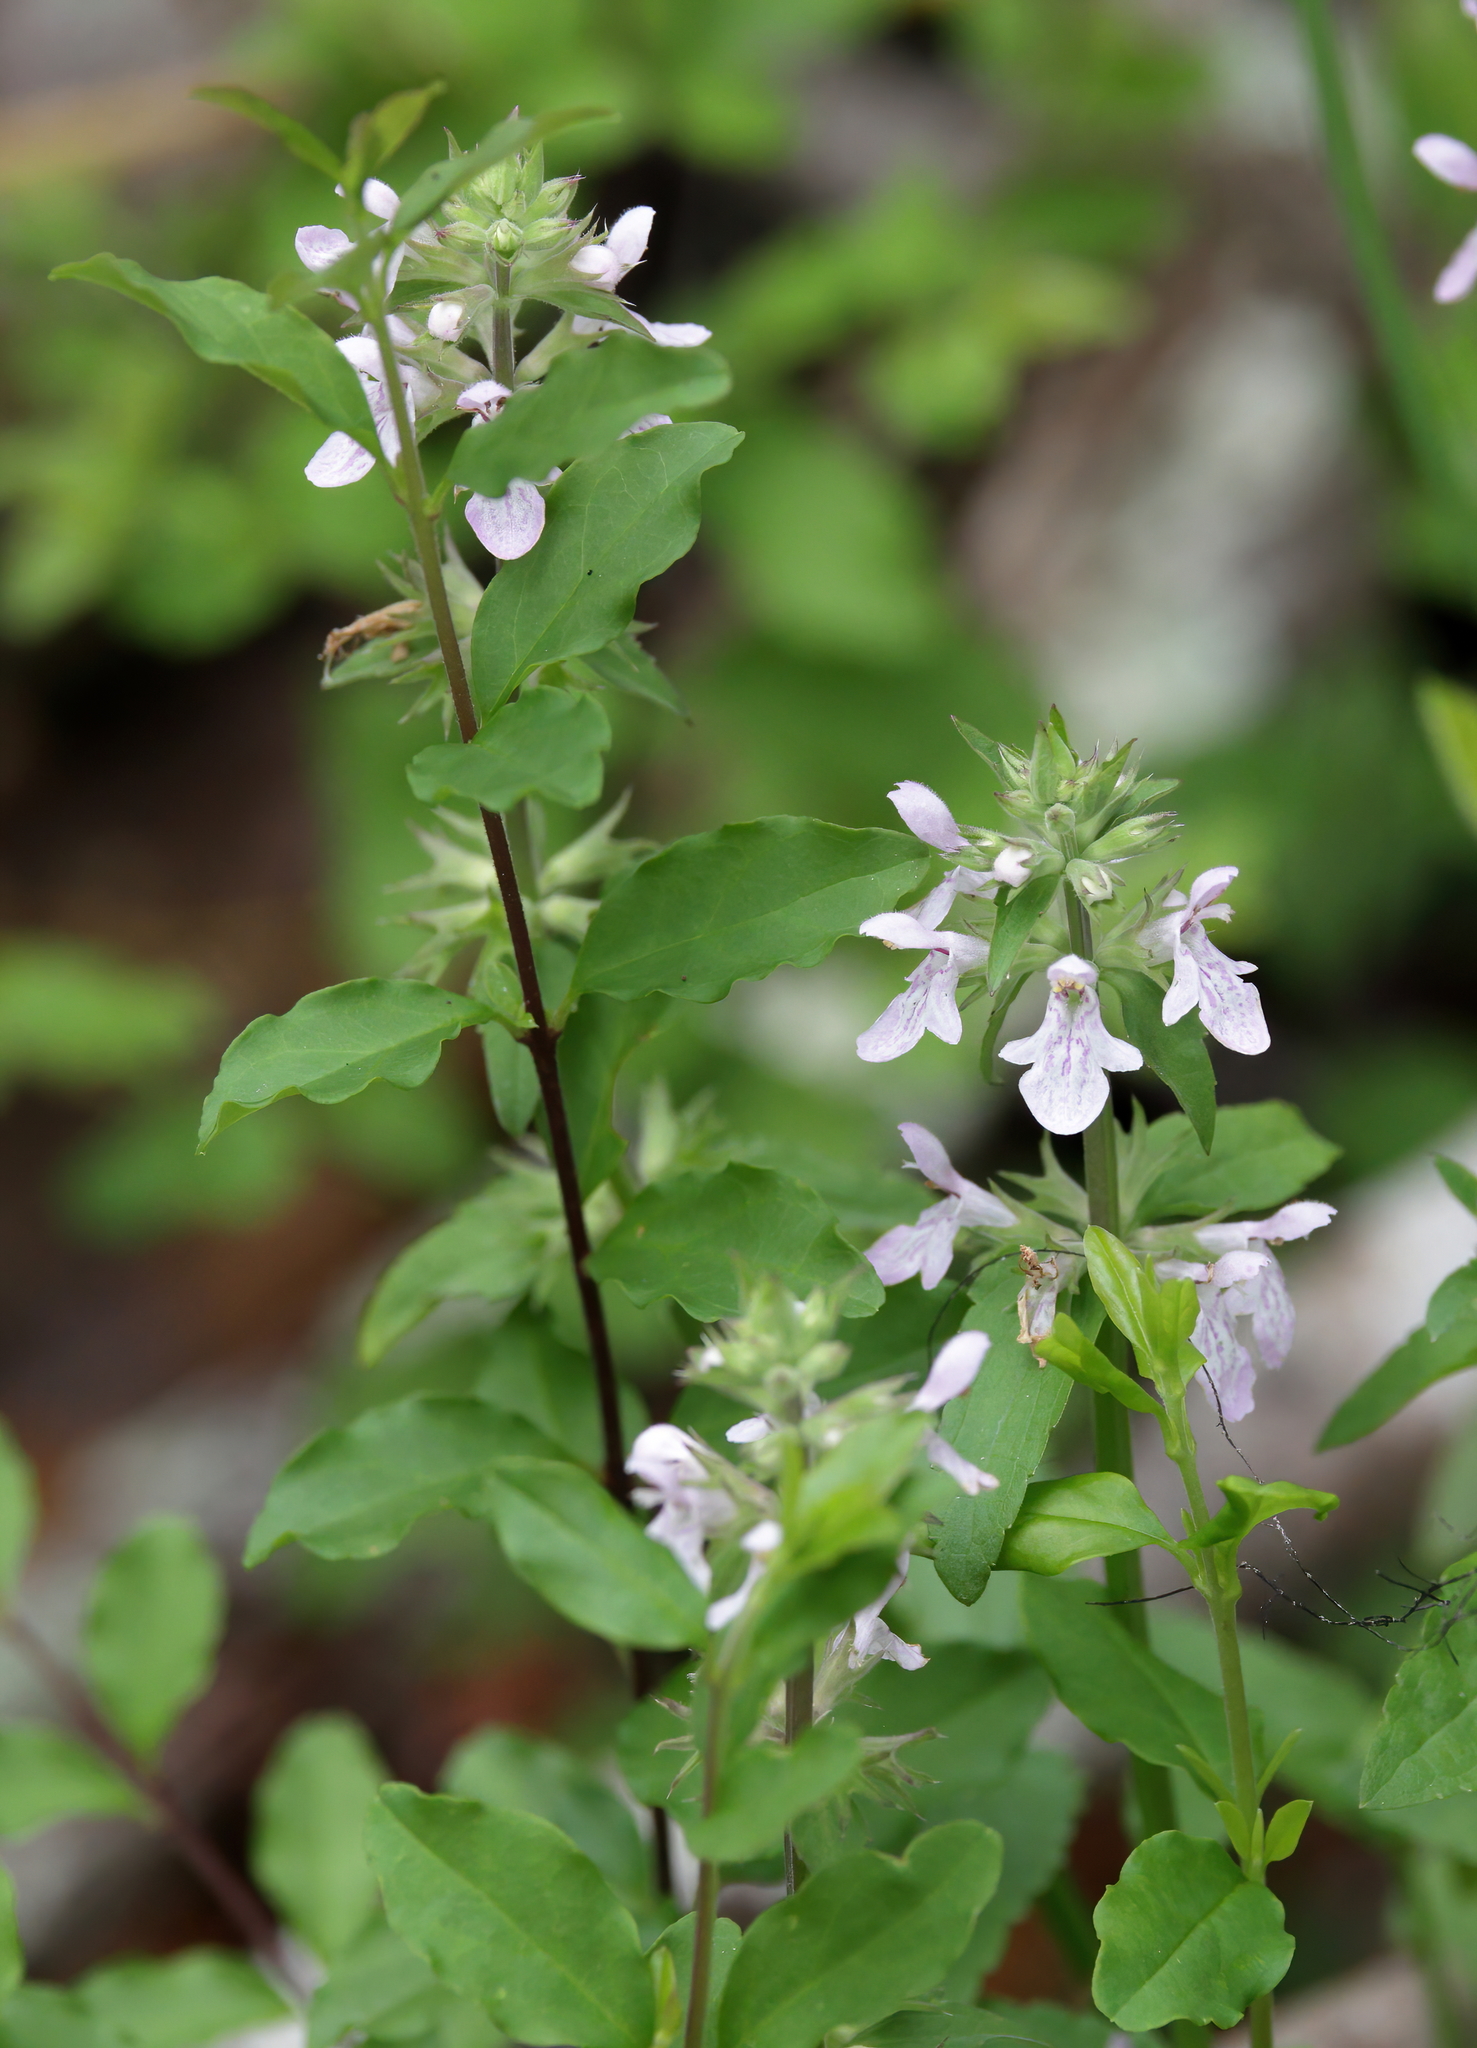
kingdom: Plantae
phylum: Tracheophyta
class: Magnoliopsida
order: Lamiales
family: Lamiaceae
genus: Stachys
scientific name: Stachys floridana
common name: Florida betony
